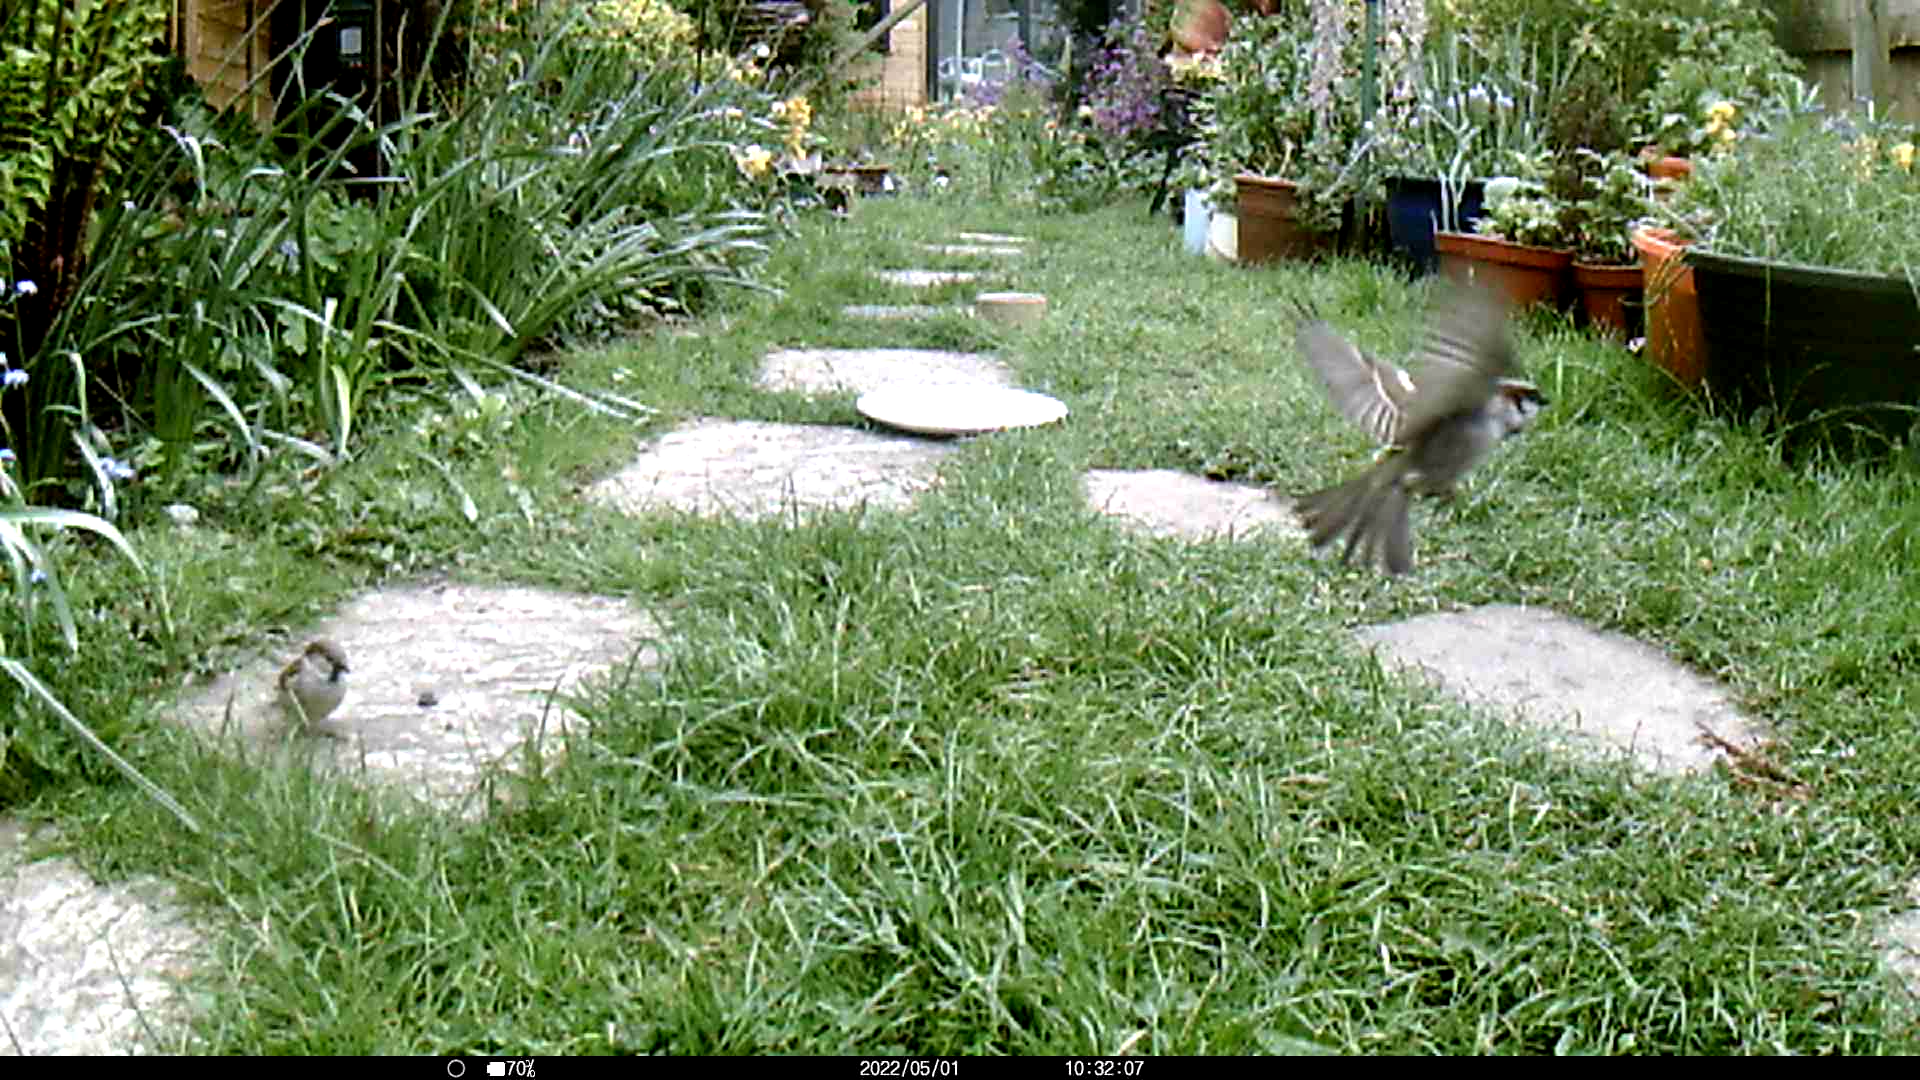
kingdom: Animalia
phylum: Chordata
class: Aves
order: Passeriformes
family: Passeridae
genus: Passer
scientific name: Passer domesticus
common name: House sparrow
